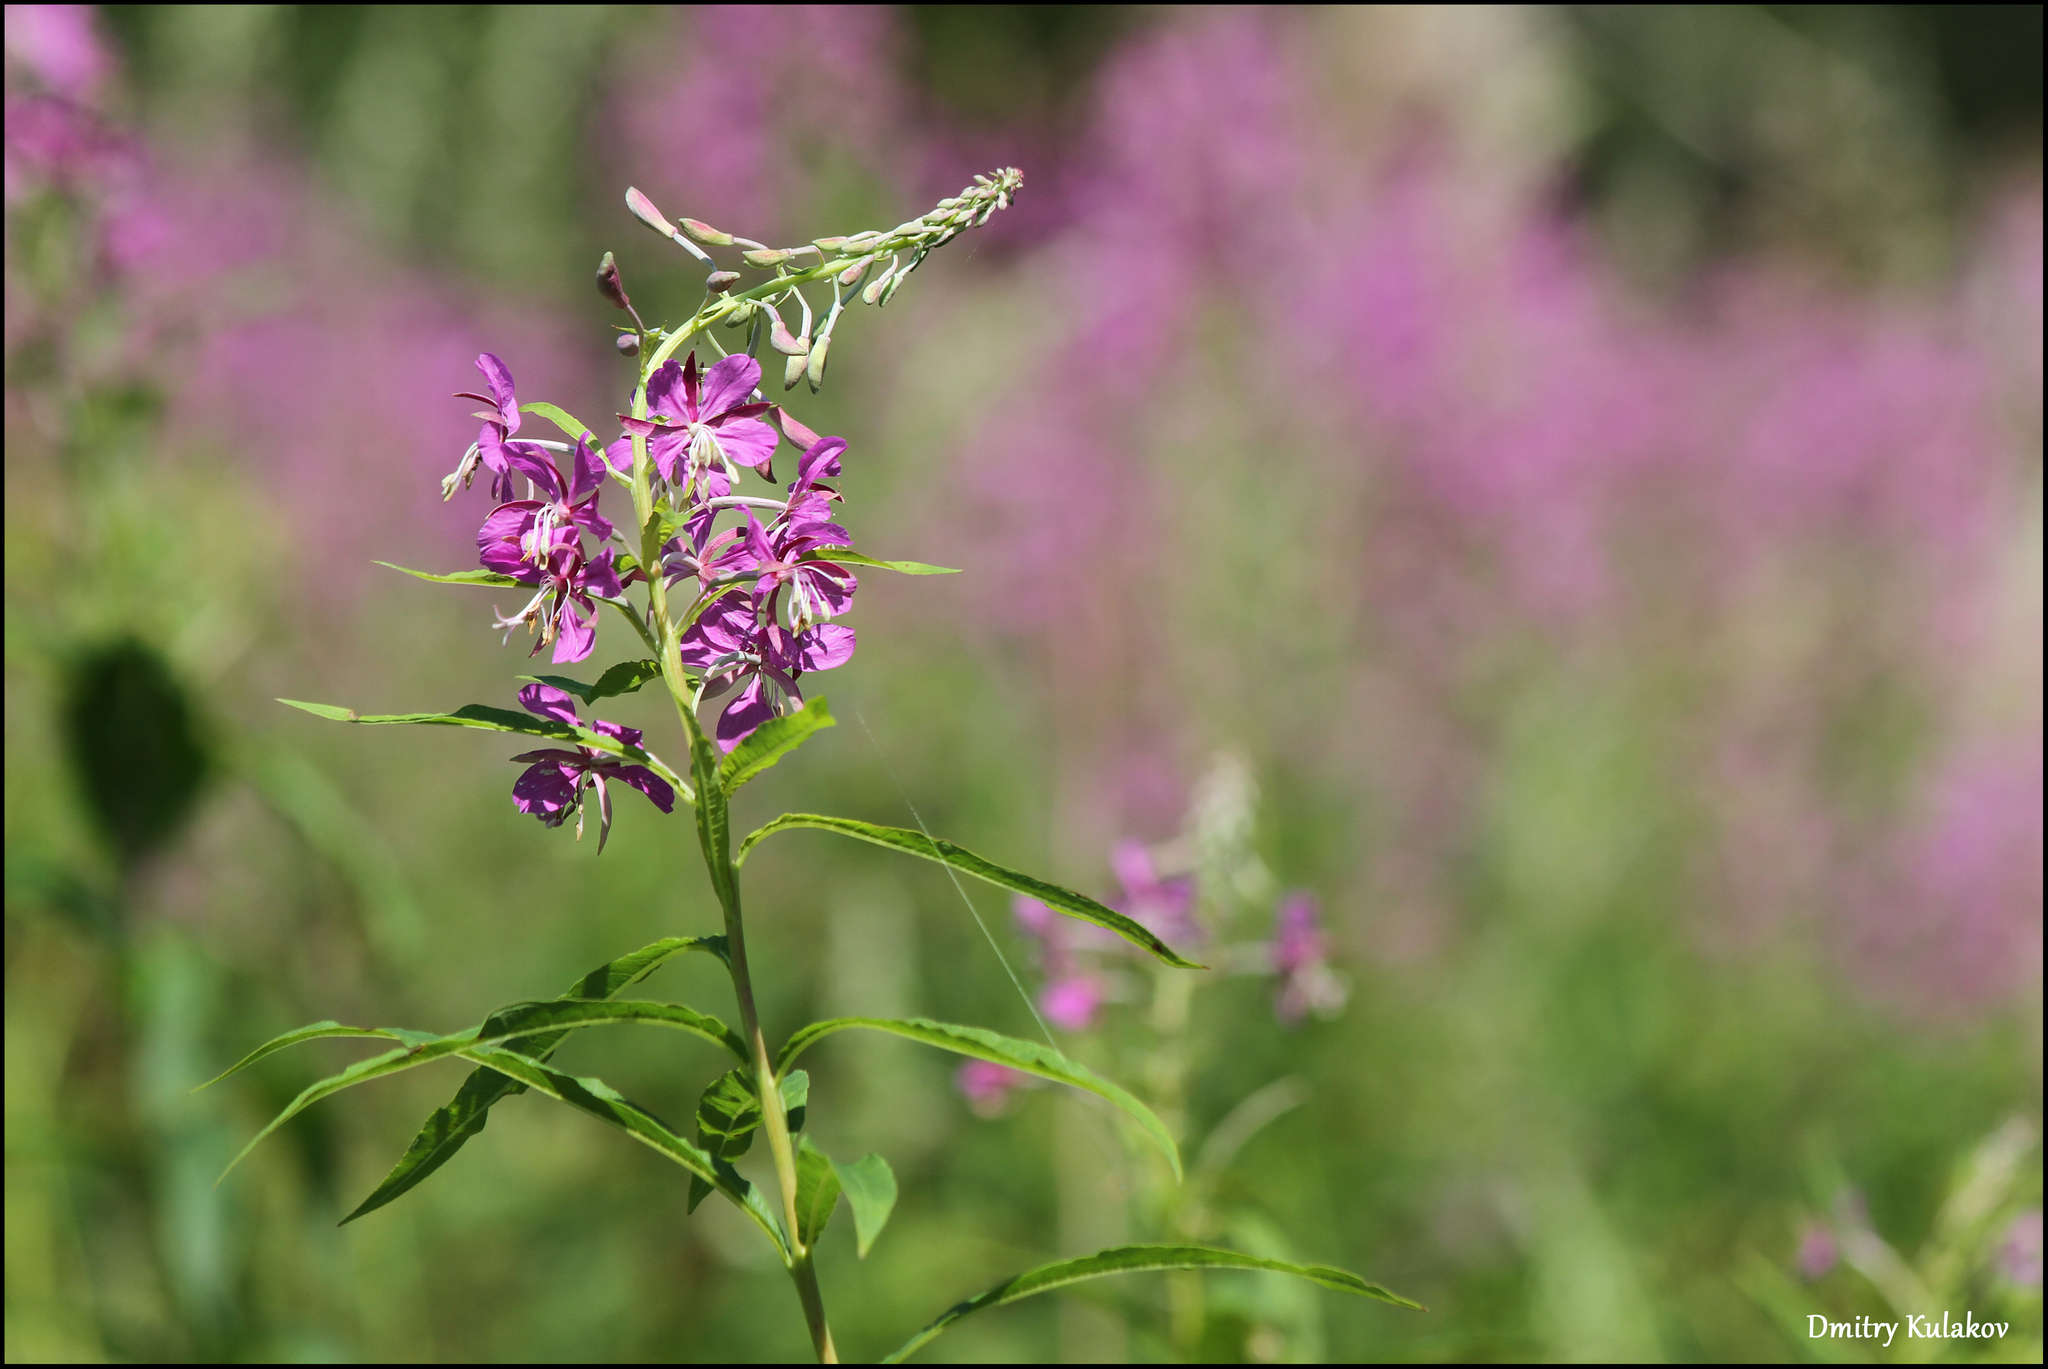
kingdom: Plantae
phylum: Tracheophyta
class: Magnoliopsida
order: Myrtales
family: Onagraceae
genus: Chamaenerion
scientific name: Chamaenerion angustifolium
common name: Fireweed
